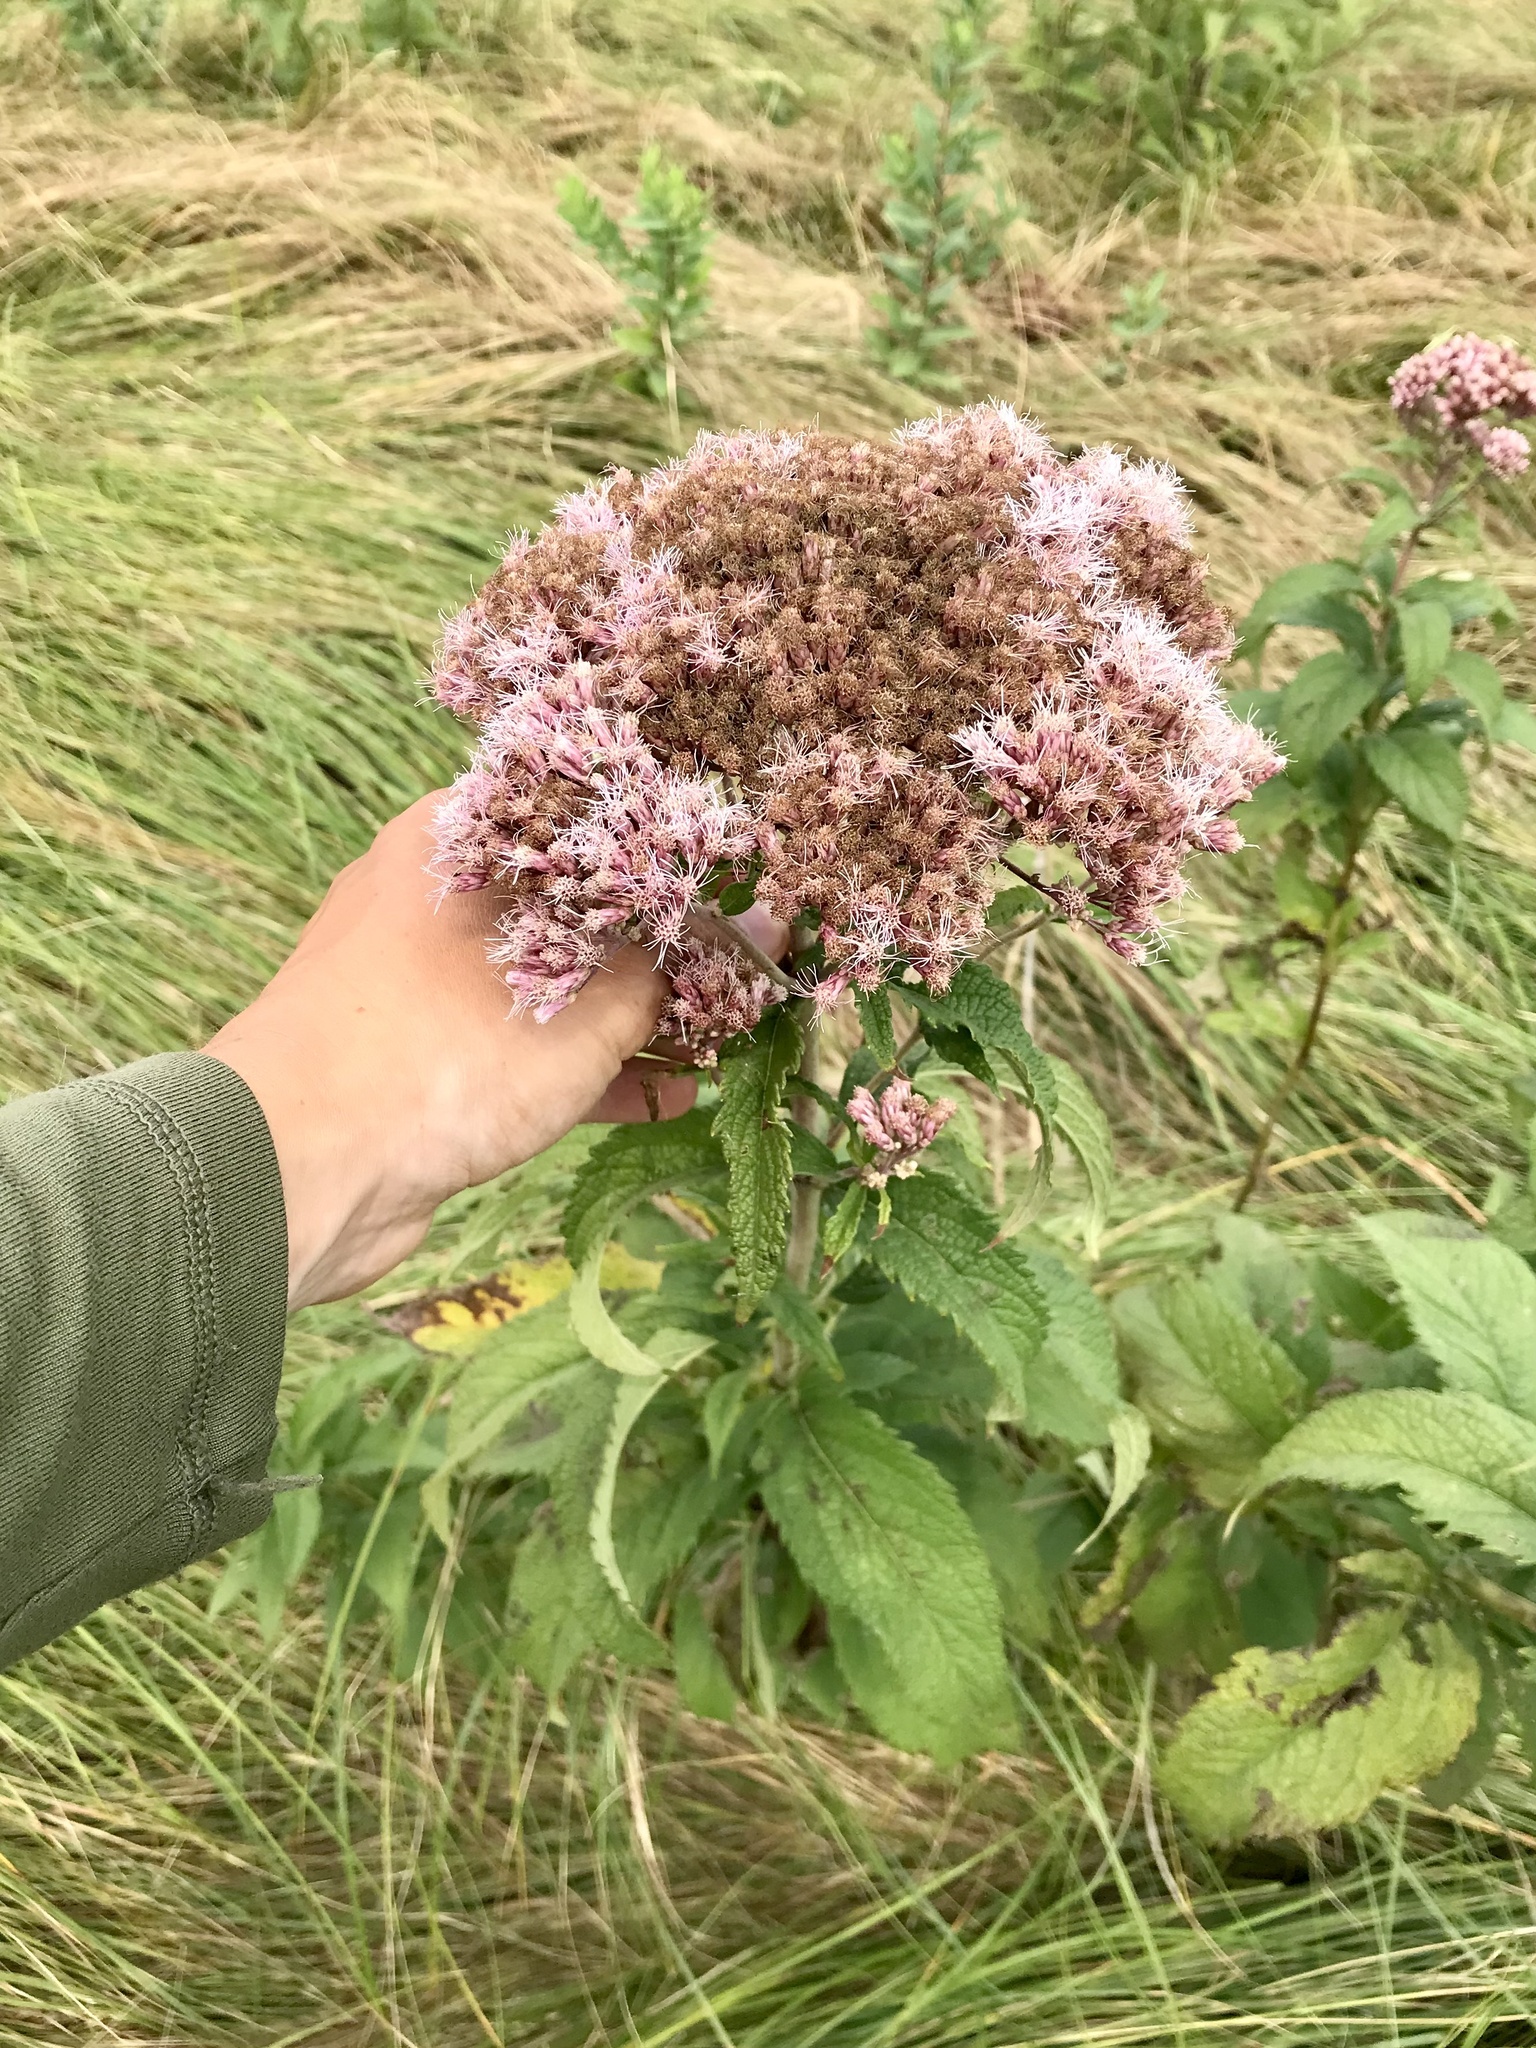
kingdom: Plantae
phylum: Tracheophyta
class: Magnoliopsida
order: Asterales
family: Asteraceae
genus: Eutrochium
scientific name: Eutrochium maculatum
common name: Spotted joe pye weed
